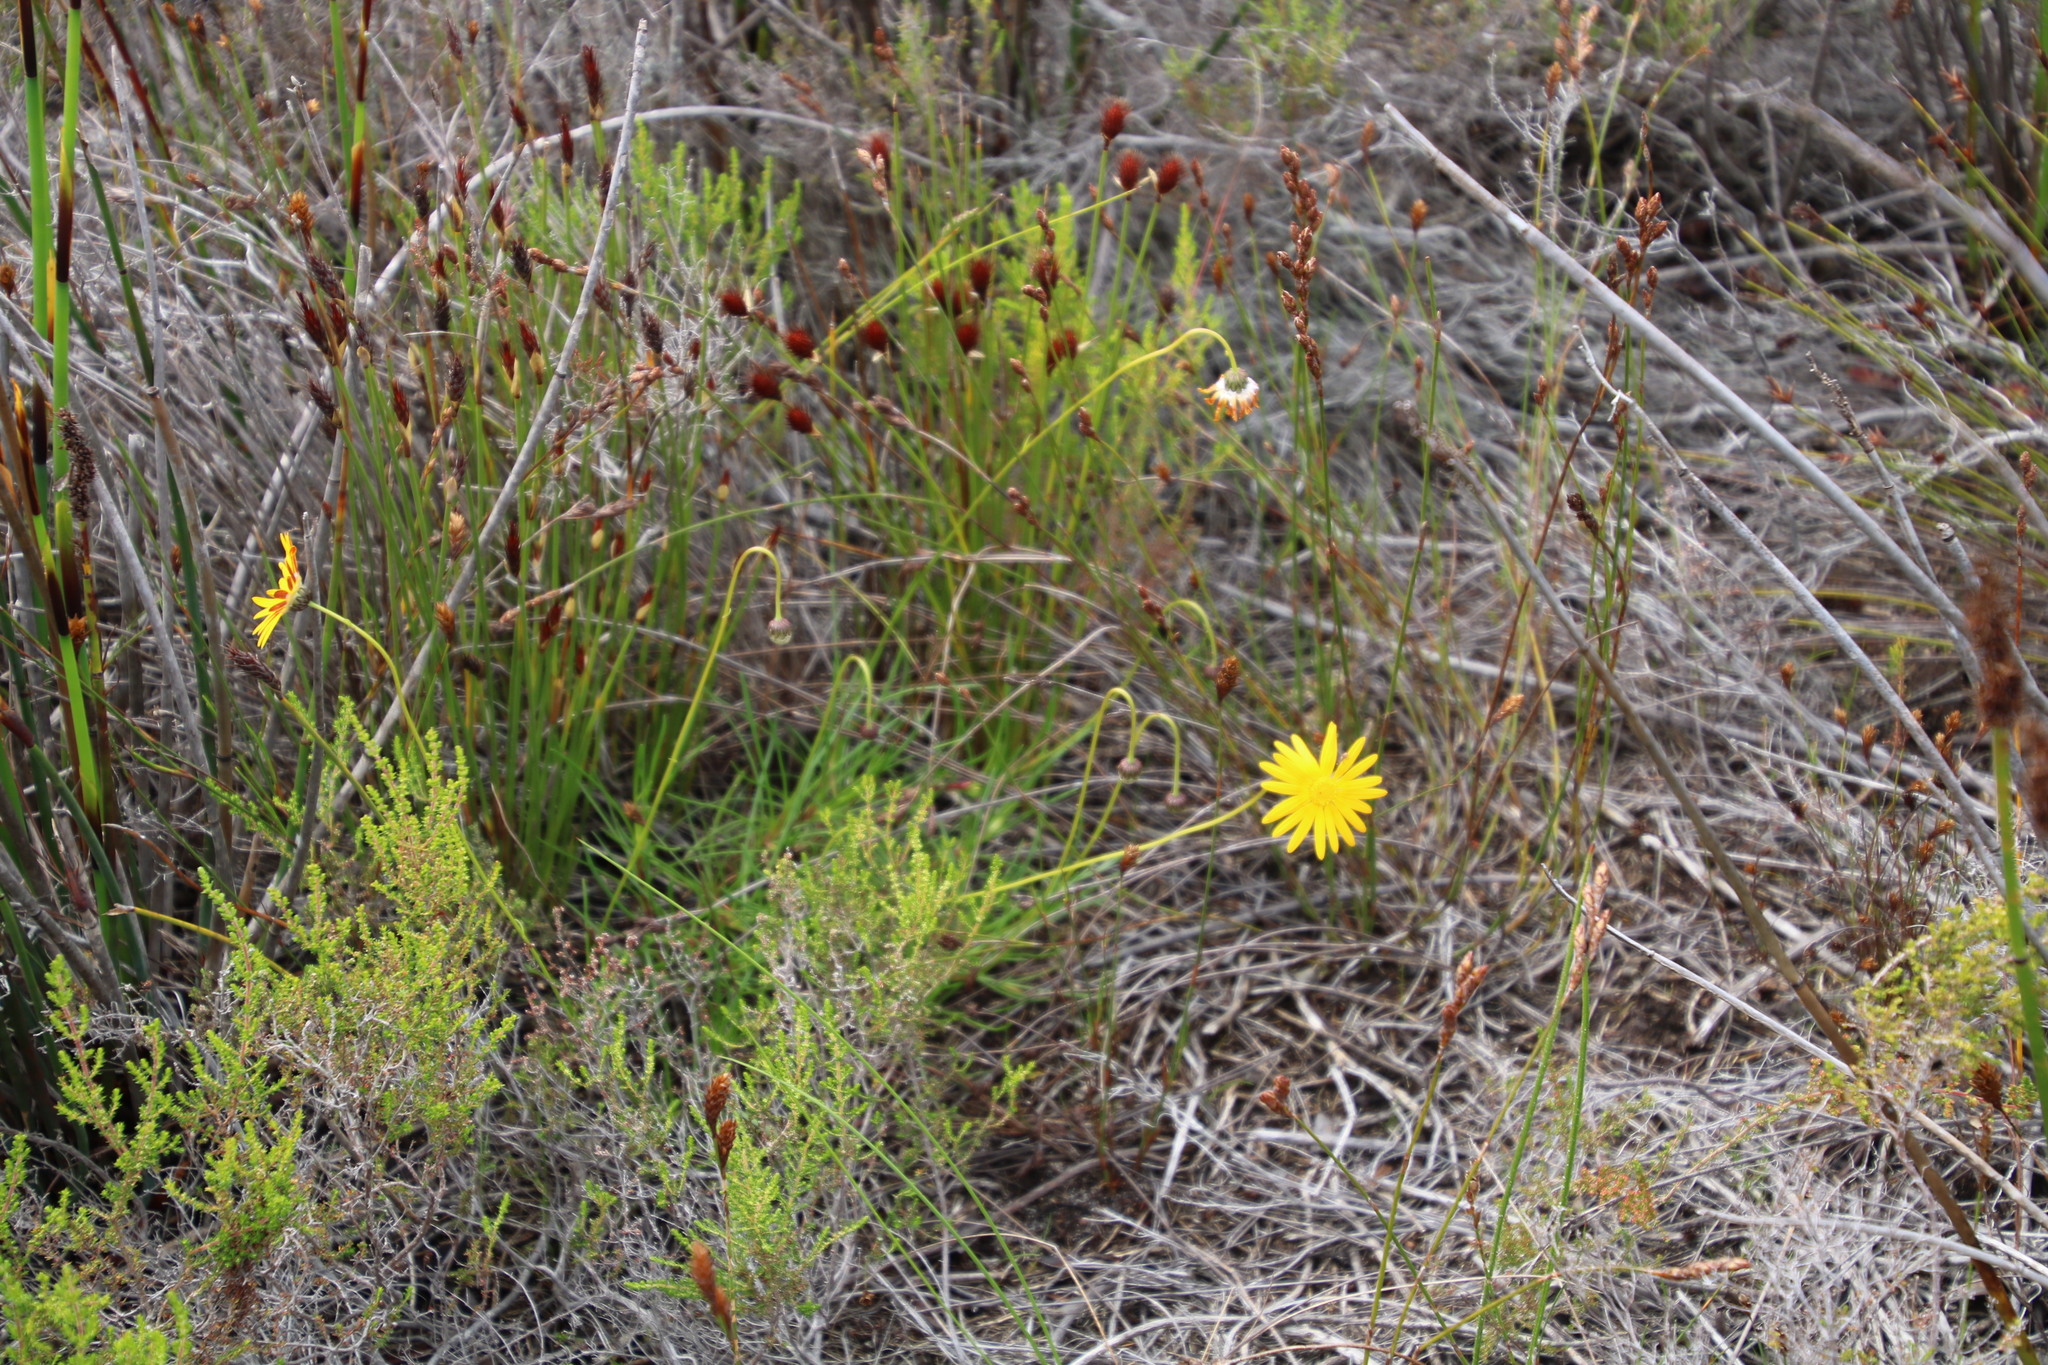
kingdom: Plantae
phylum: Tracheophyta
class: Magnoliopsida
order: Asterales
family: Asteraceae
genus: Ursinia
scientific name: Ursinia tenuifolia
